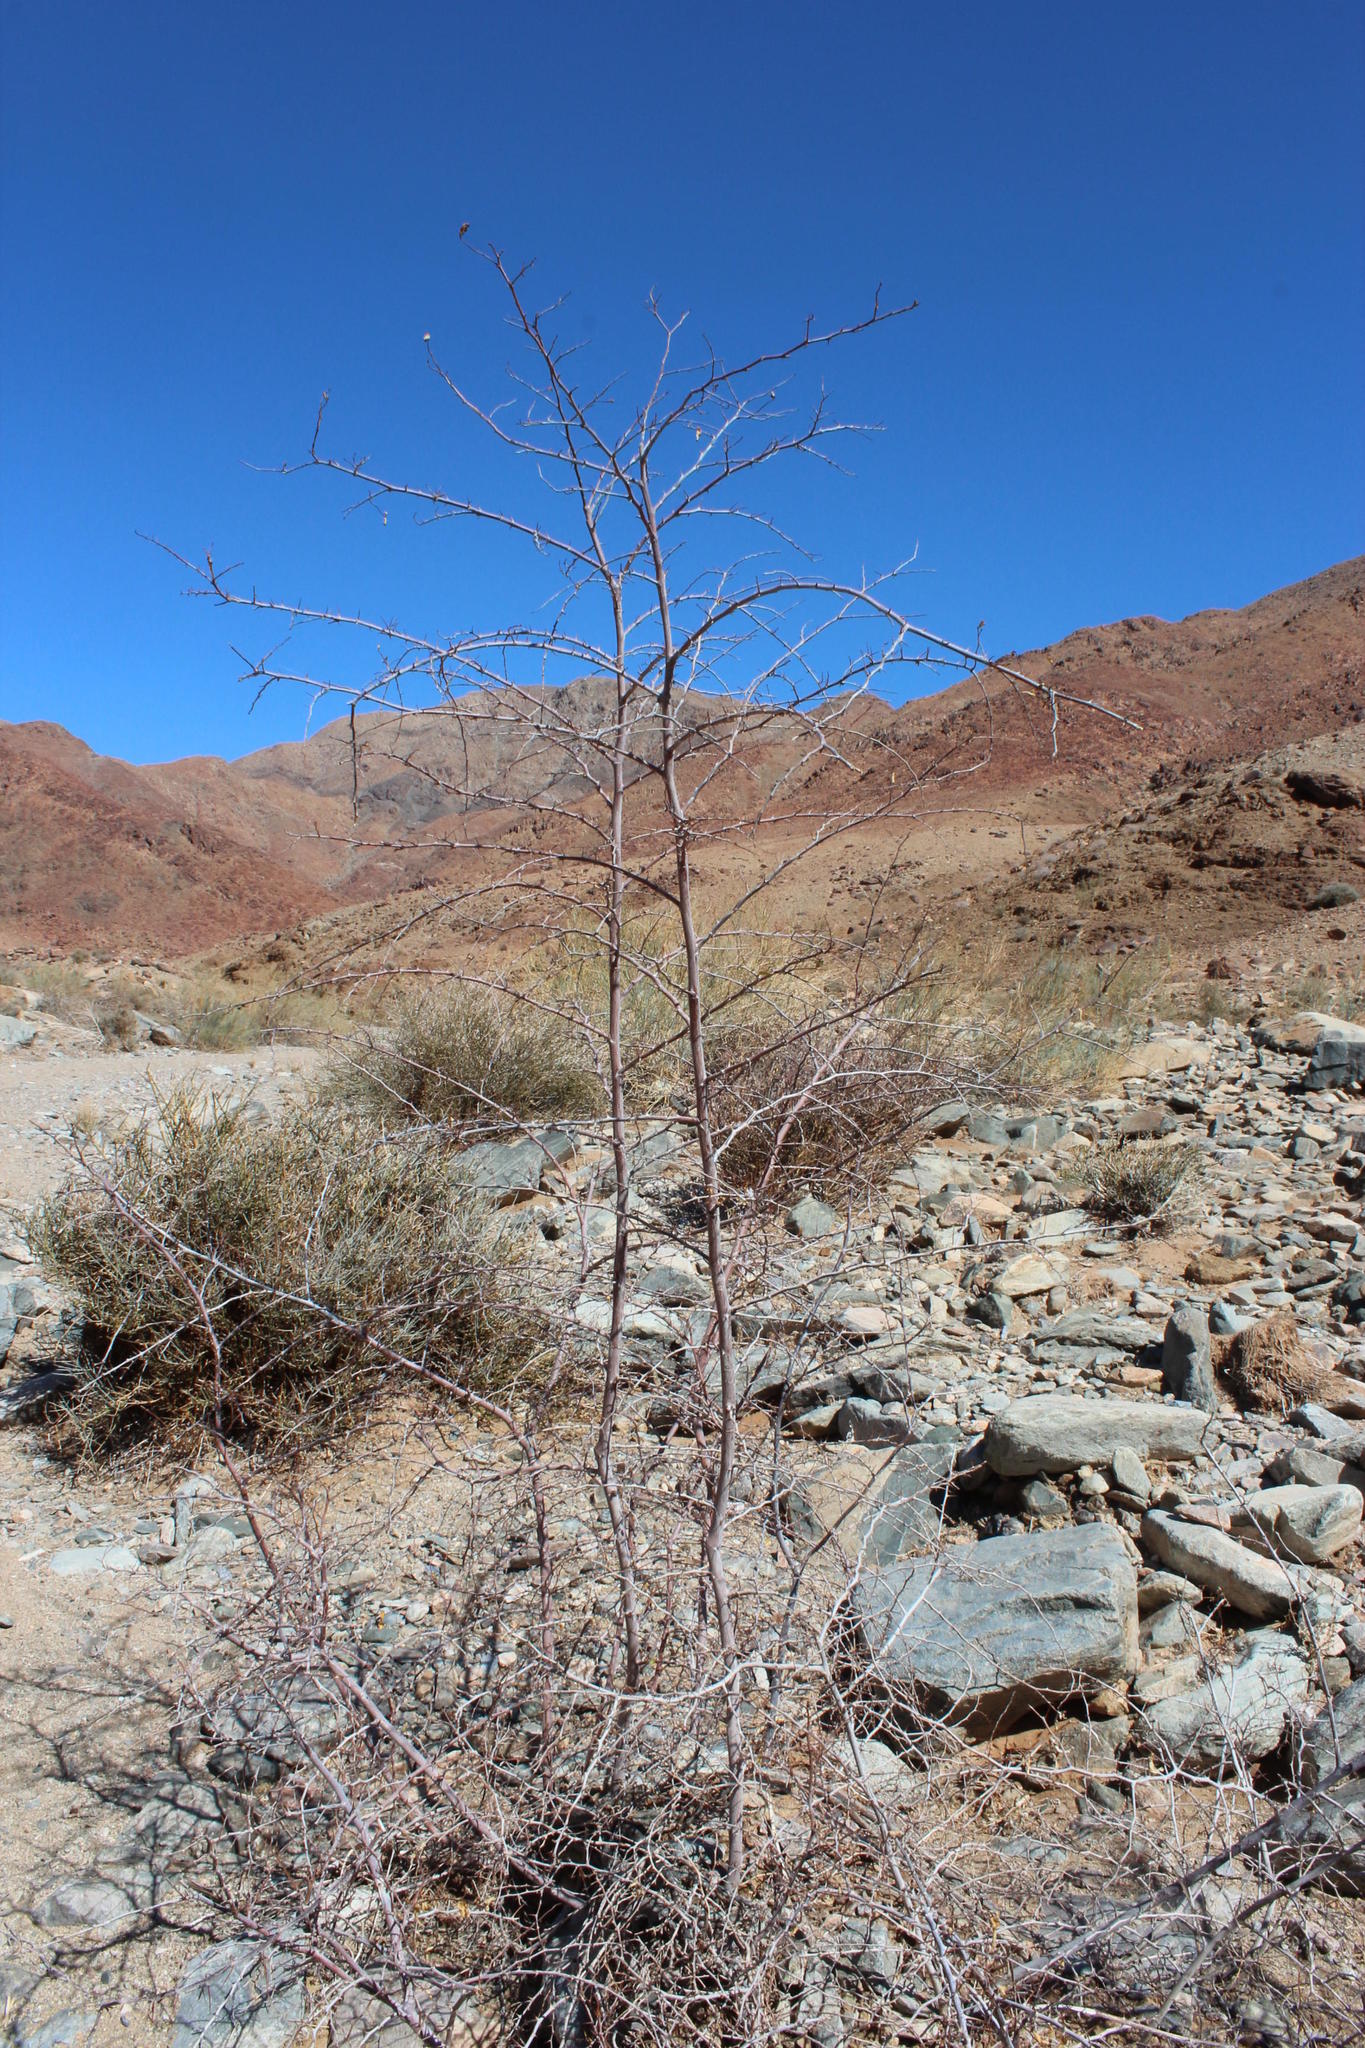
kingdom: Plantae
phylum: Tracheophyta
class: Magnoliopsida
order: Rosales
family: Rhamnaceae
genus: Ziziphus
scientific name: Ziziphus mucronata
